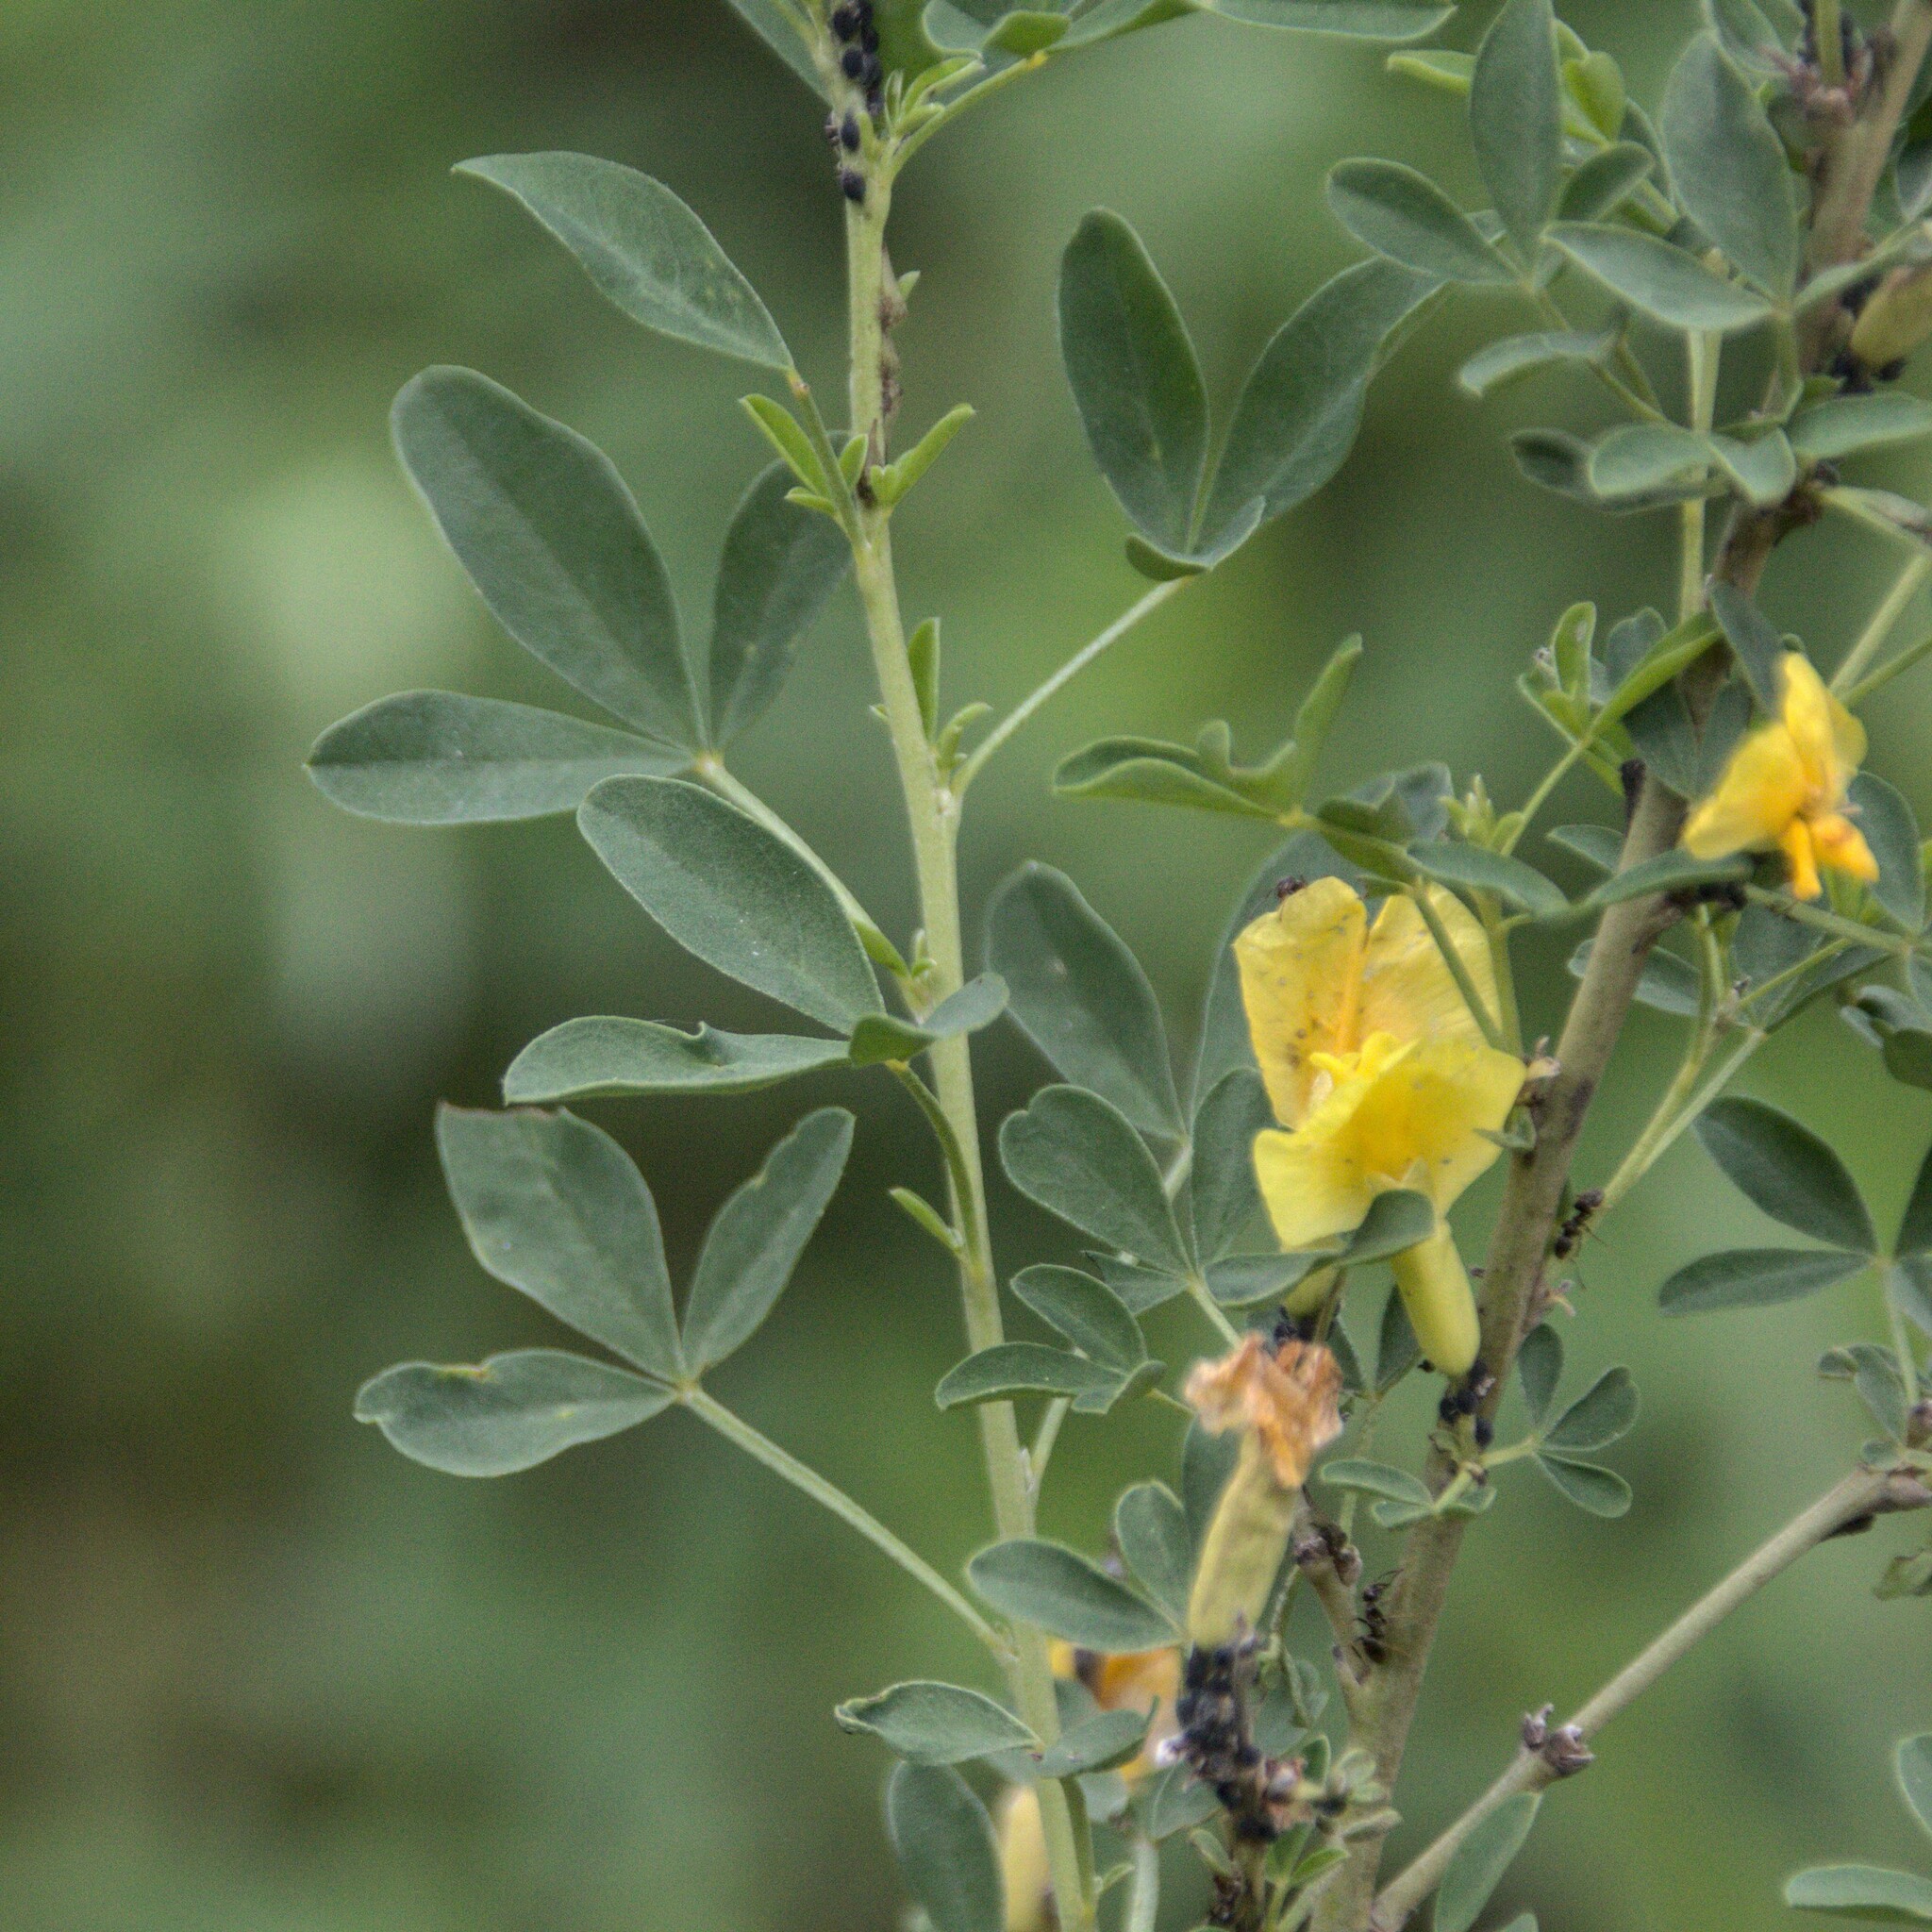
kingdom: Plantae
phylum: Tracheophyta
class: Magnoliopsida
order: Fabales
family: Fabaceae
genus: Chamaecytisus
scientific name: Chamaecytisus ruthenicus
